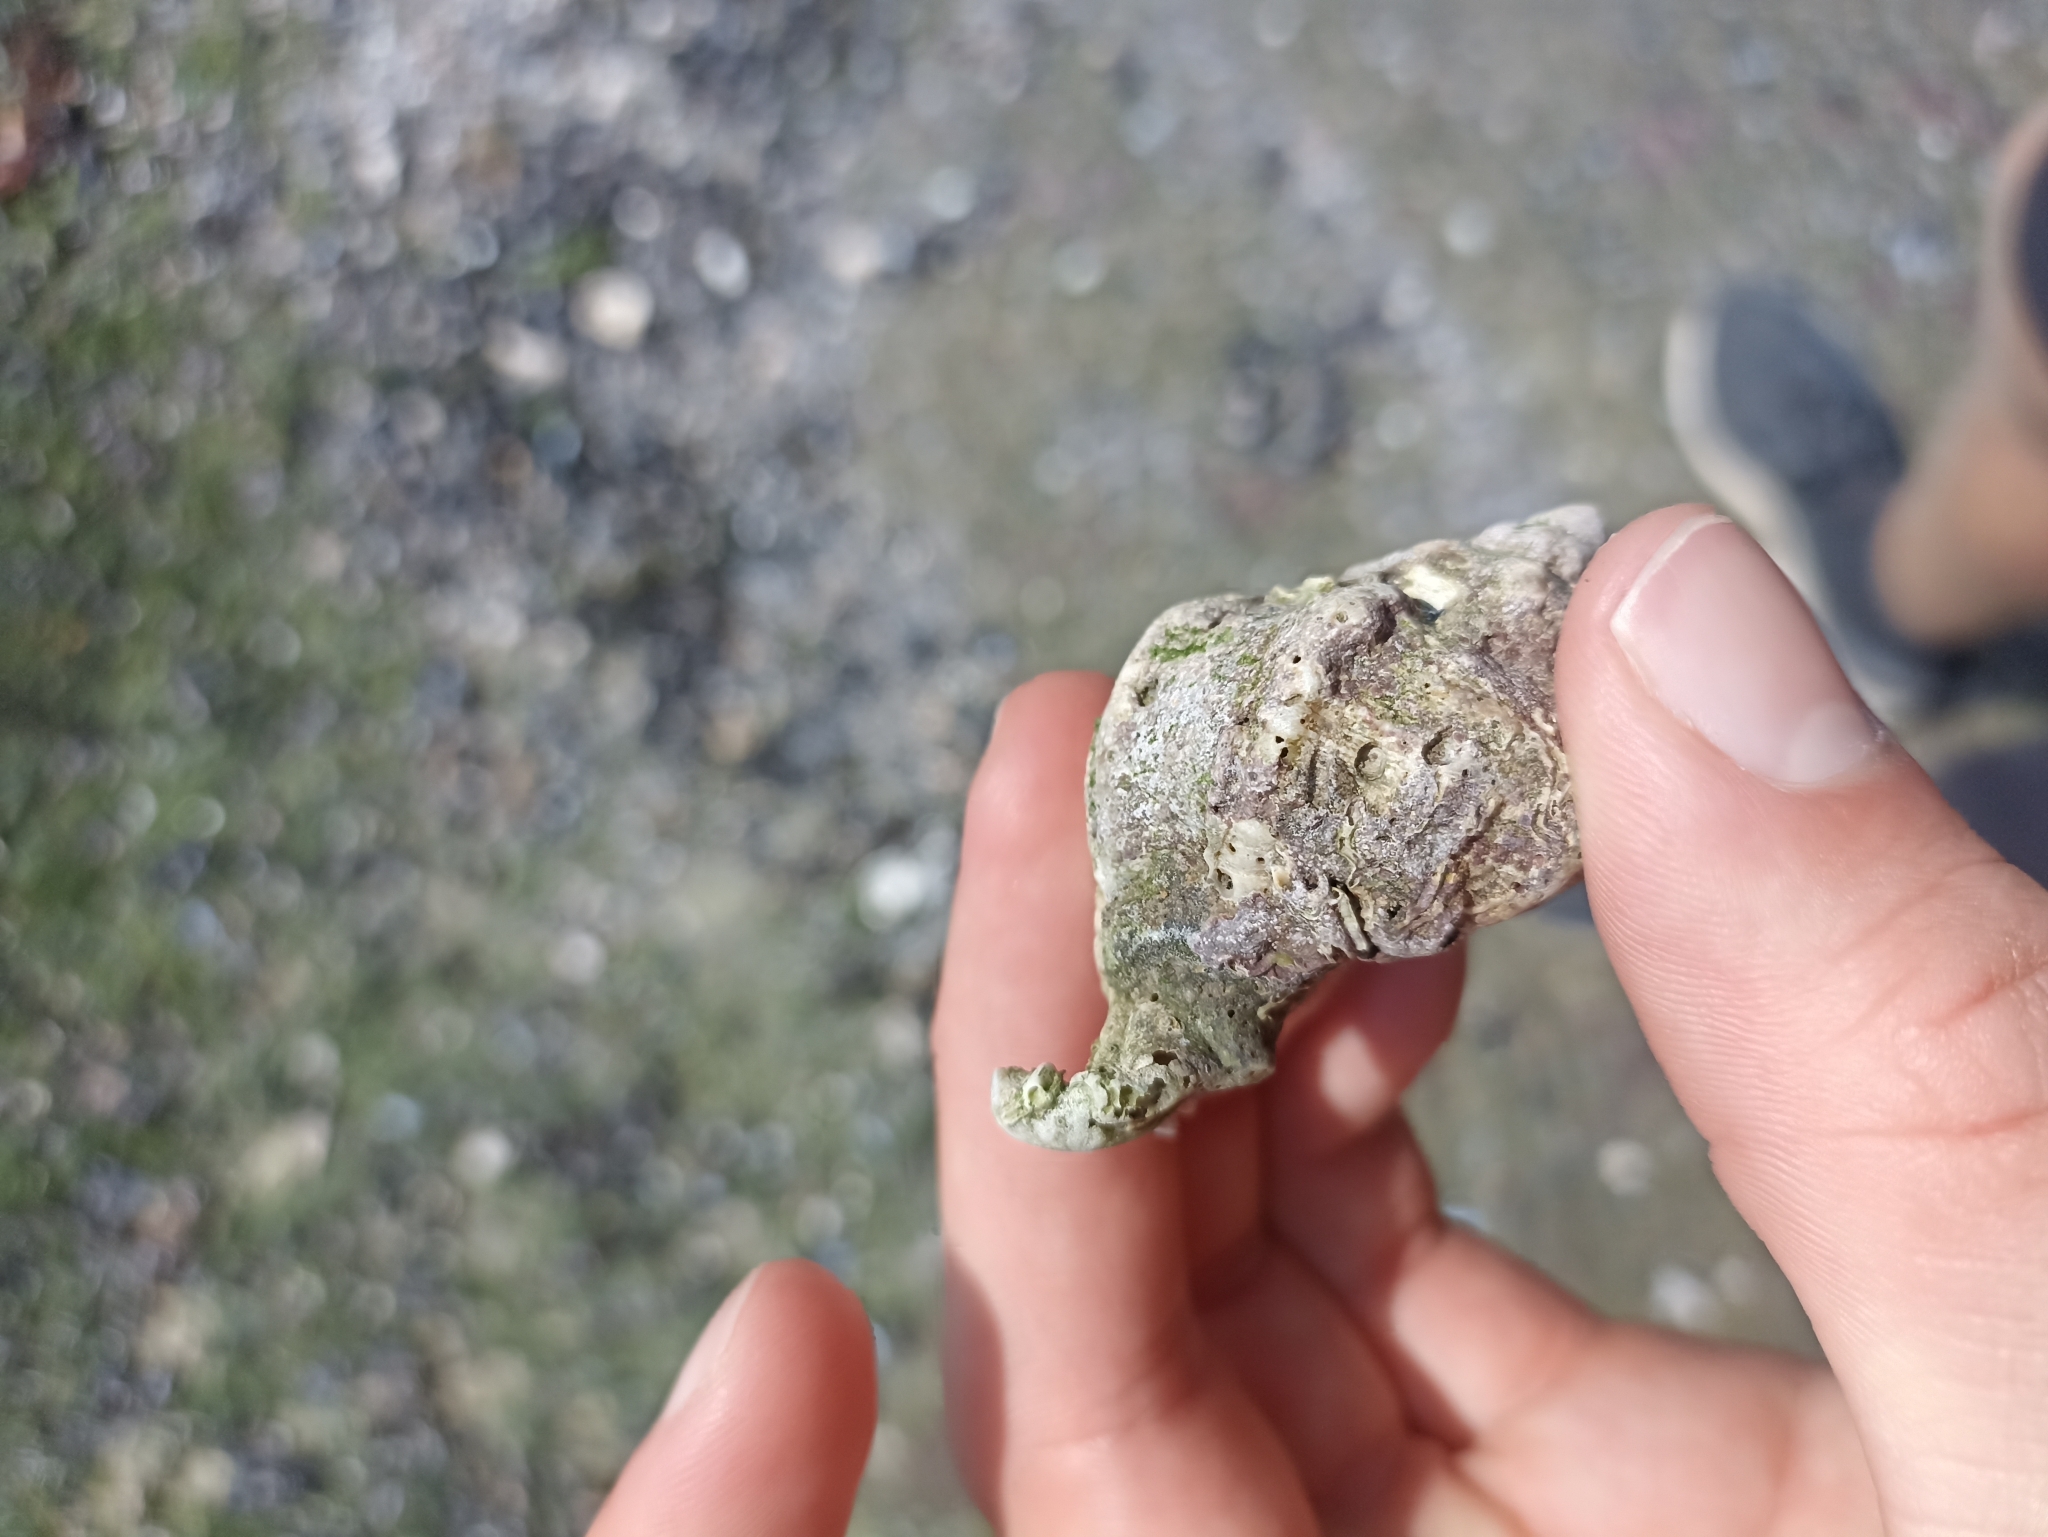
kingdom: Animalia
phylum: Mollusca
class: Gastropoda
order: Neogastropoda
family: Muricidae
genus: Hexaplex
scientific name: Hexaplex trunculus
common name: Banded dye-murex
